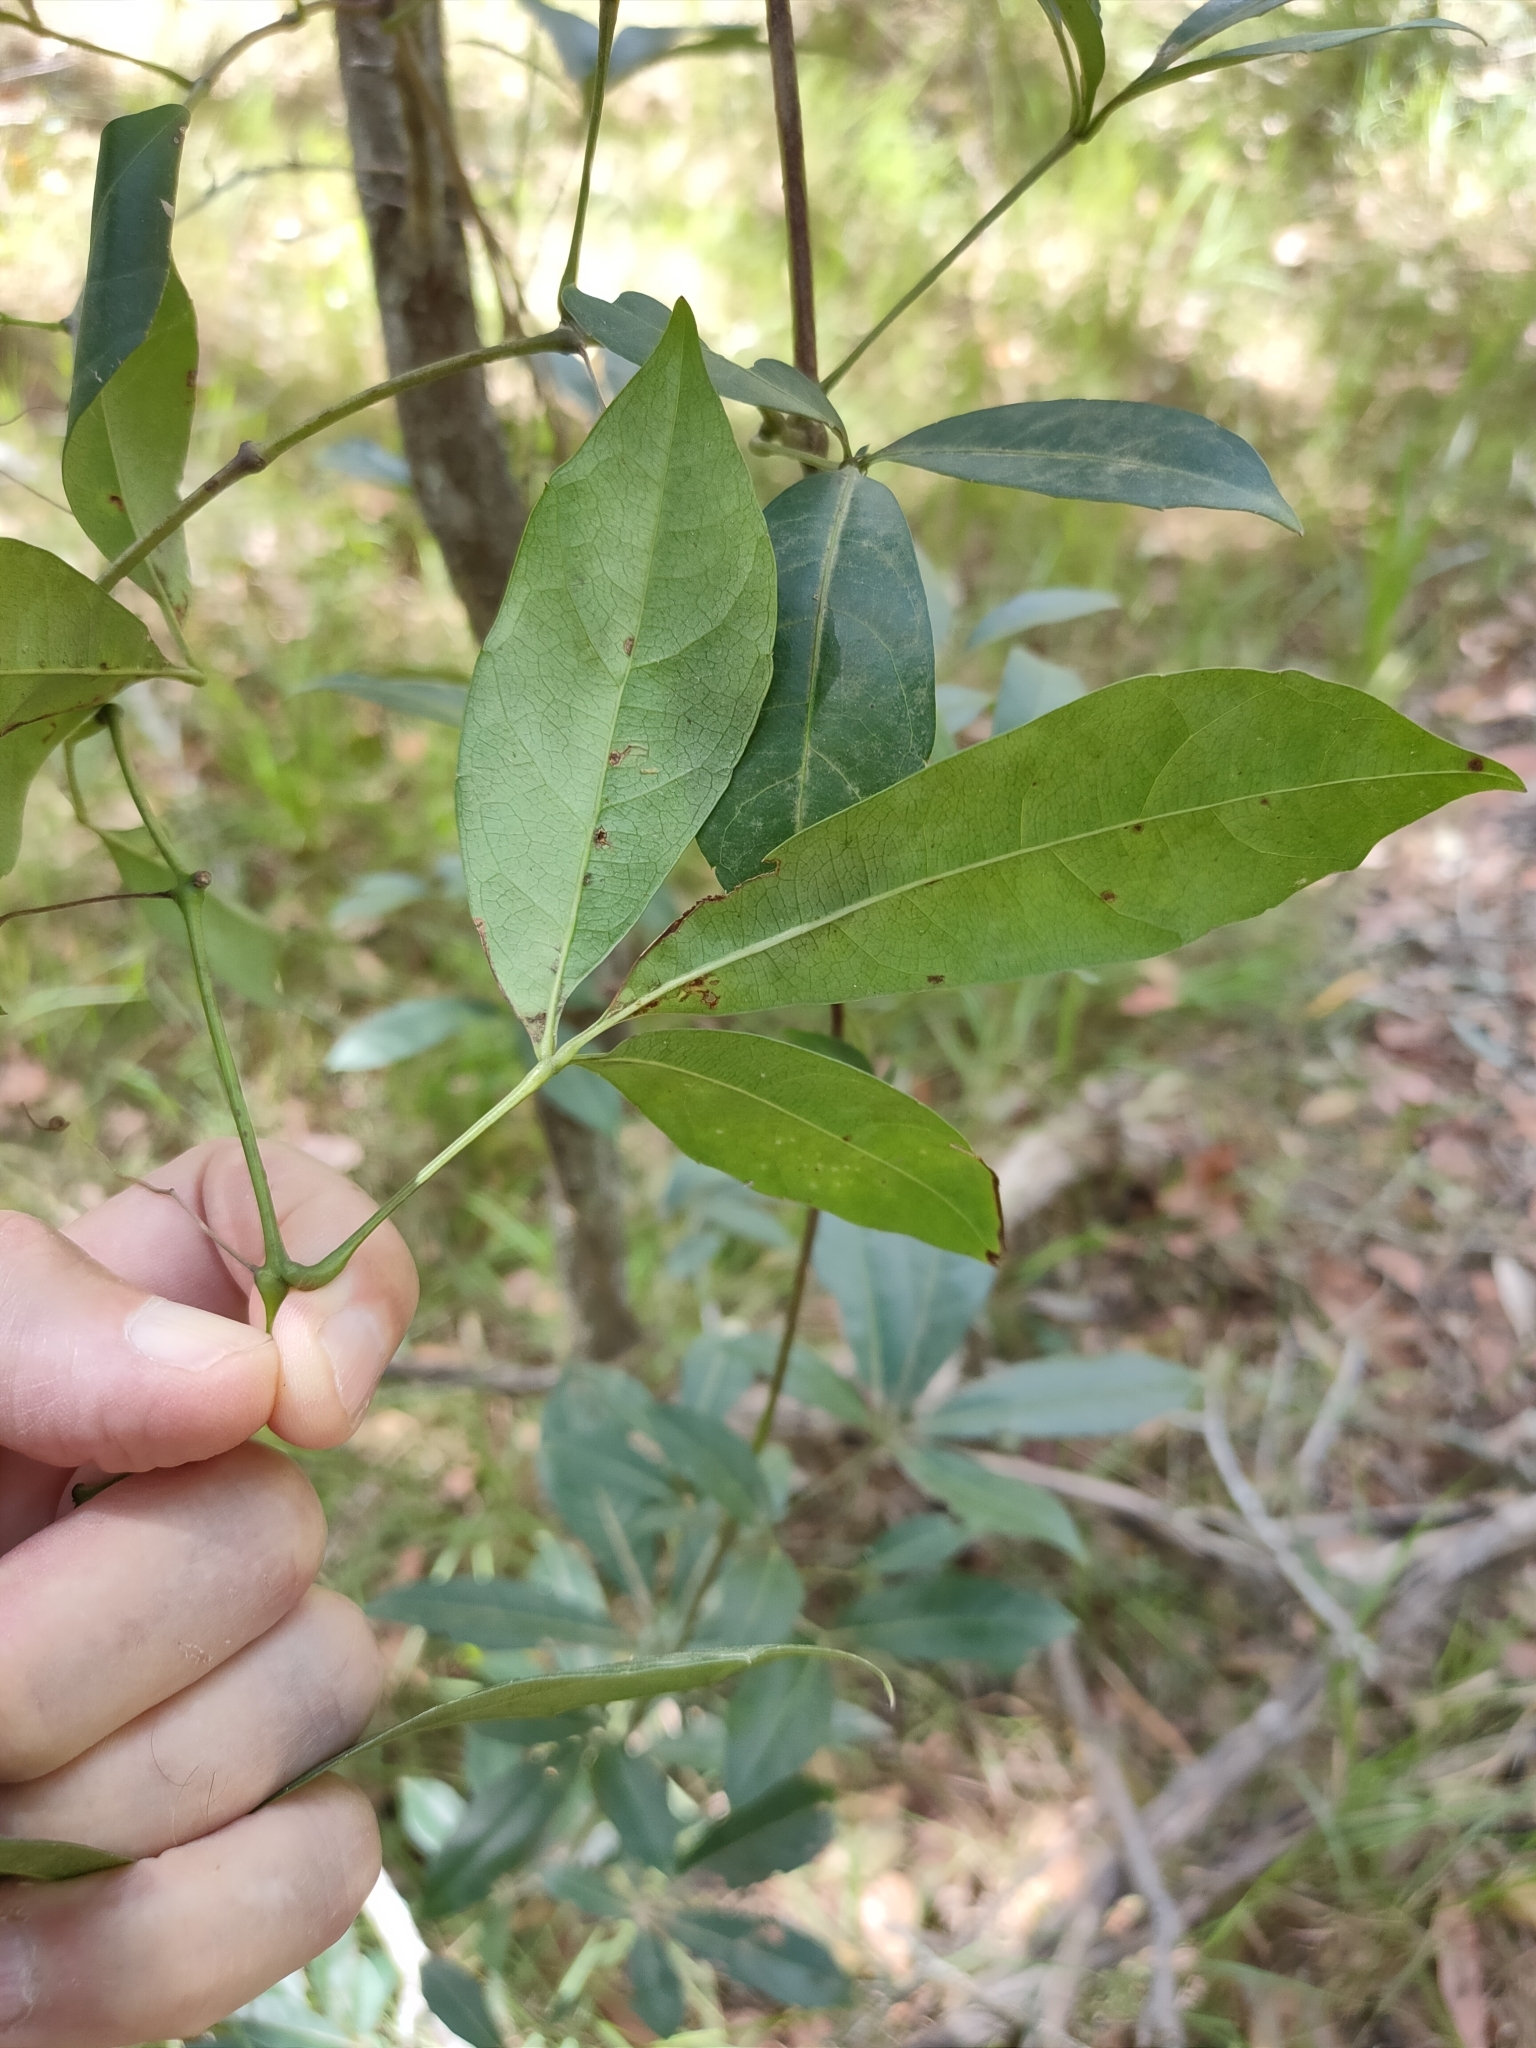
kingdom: Plantae
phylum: Tracheophyta
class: Magnoliopsida
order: Vitales
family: Vitaceae
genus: Clematicissus
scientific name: Clematicissus opaca
